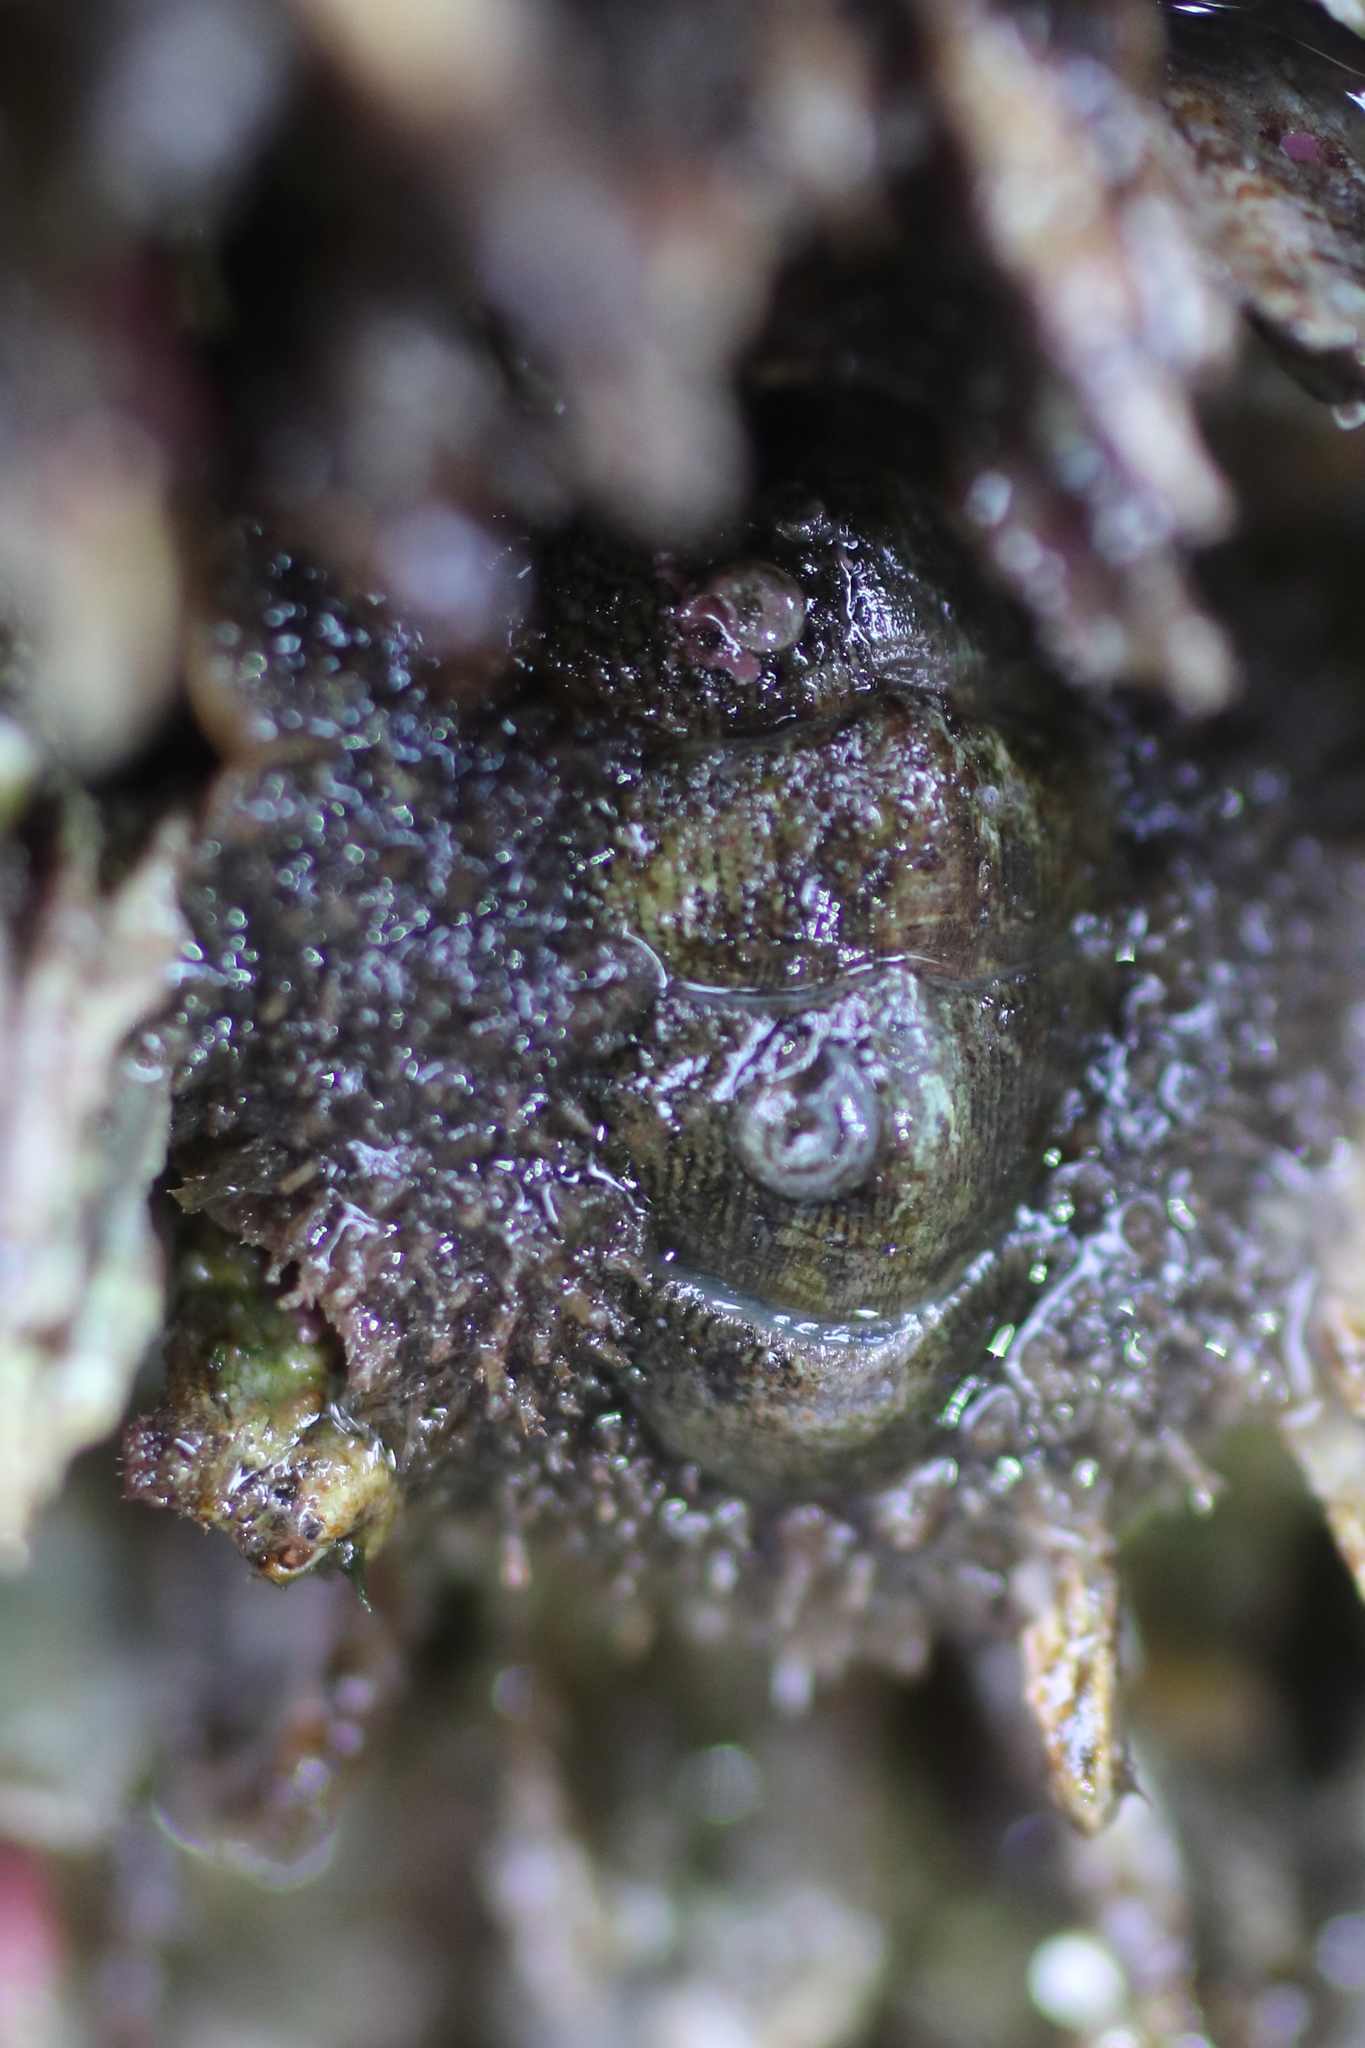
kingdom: Animalia
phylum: Mollusca
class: Polyplacophora
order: Chitonida
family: Mopaliidae
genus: Mopalia
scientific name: Mopalia ciliata
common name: Hairy chiton
